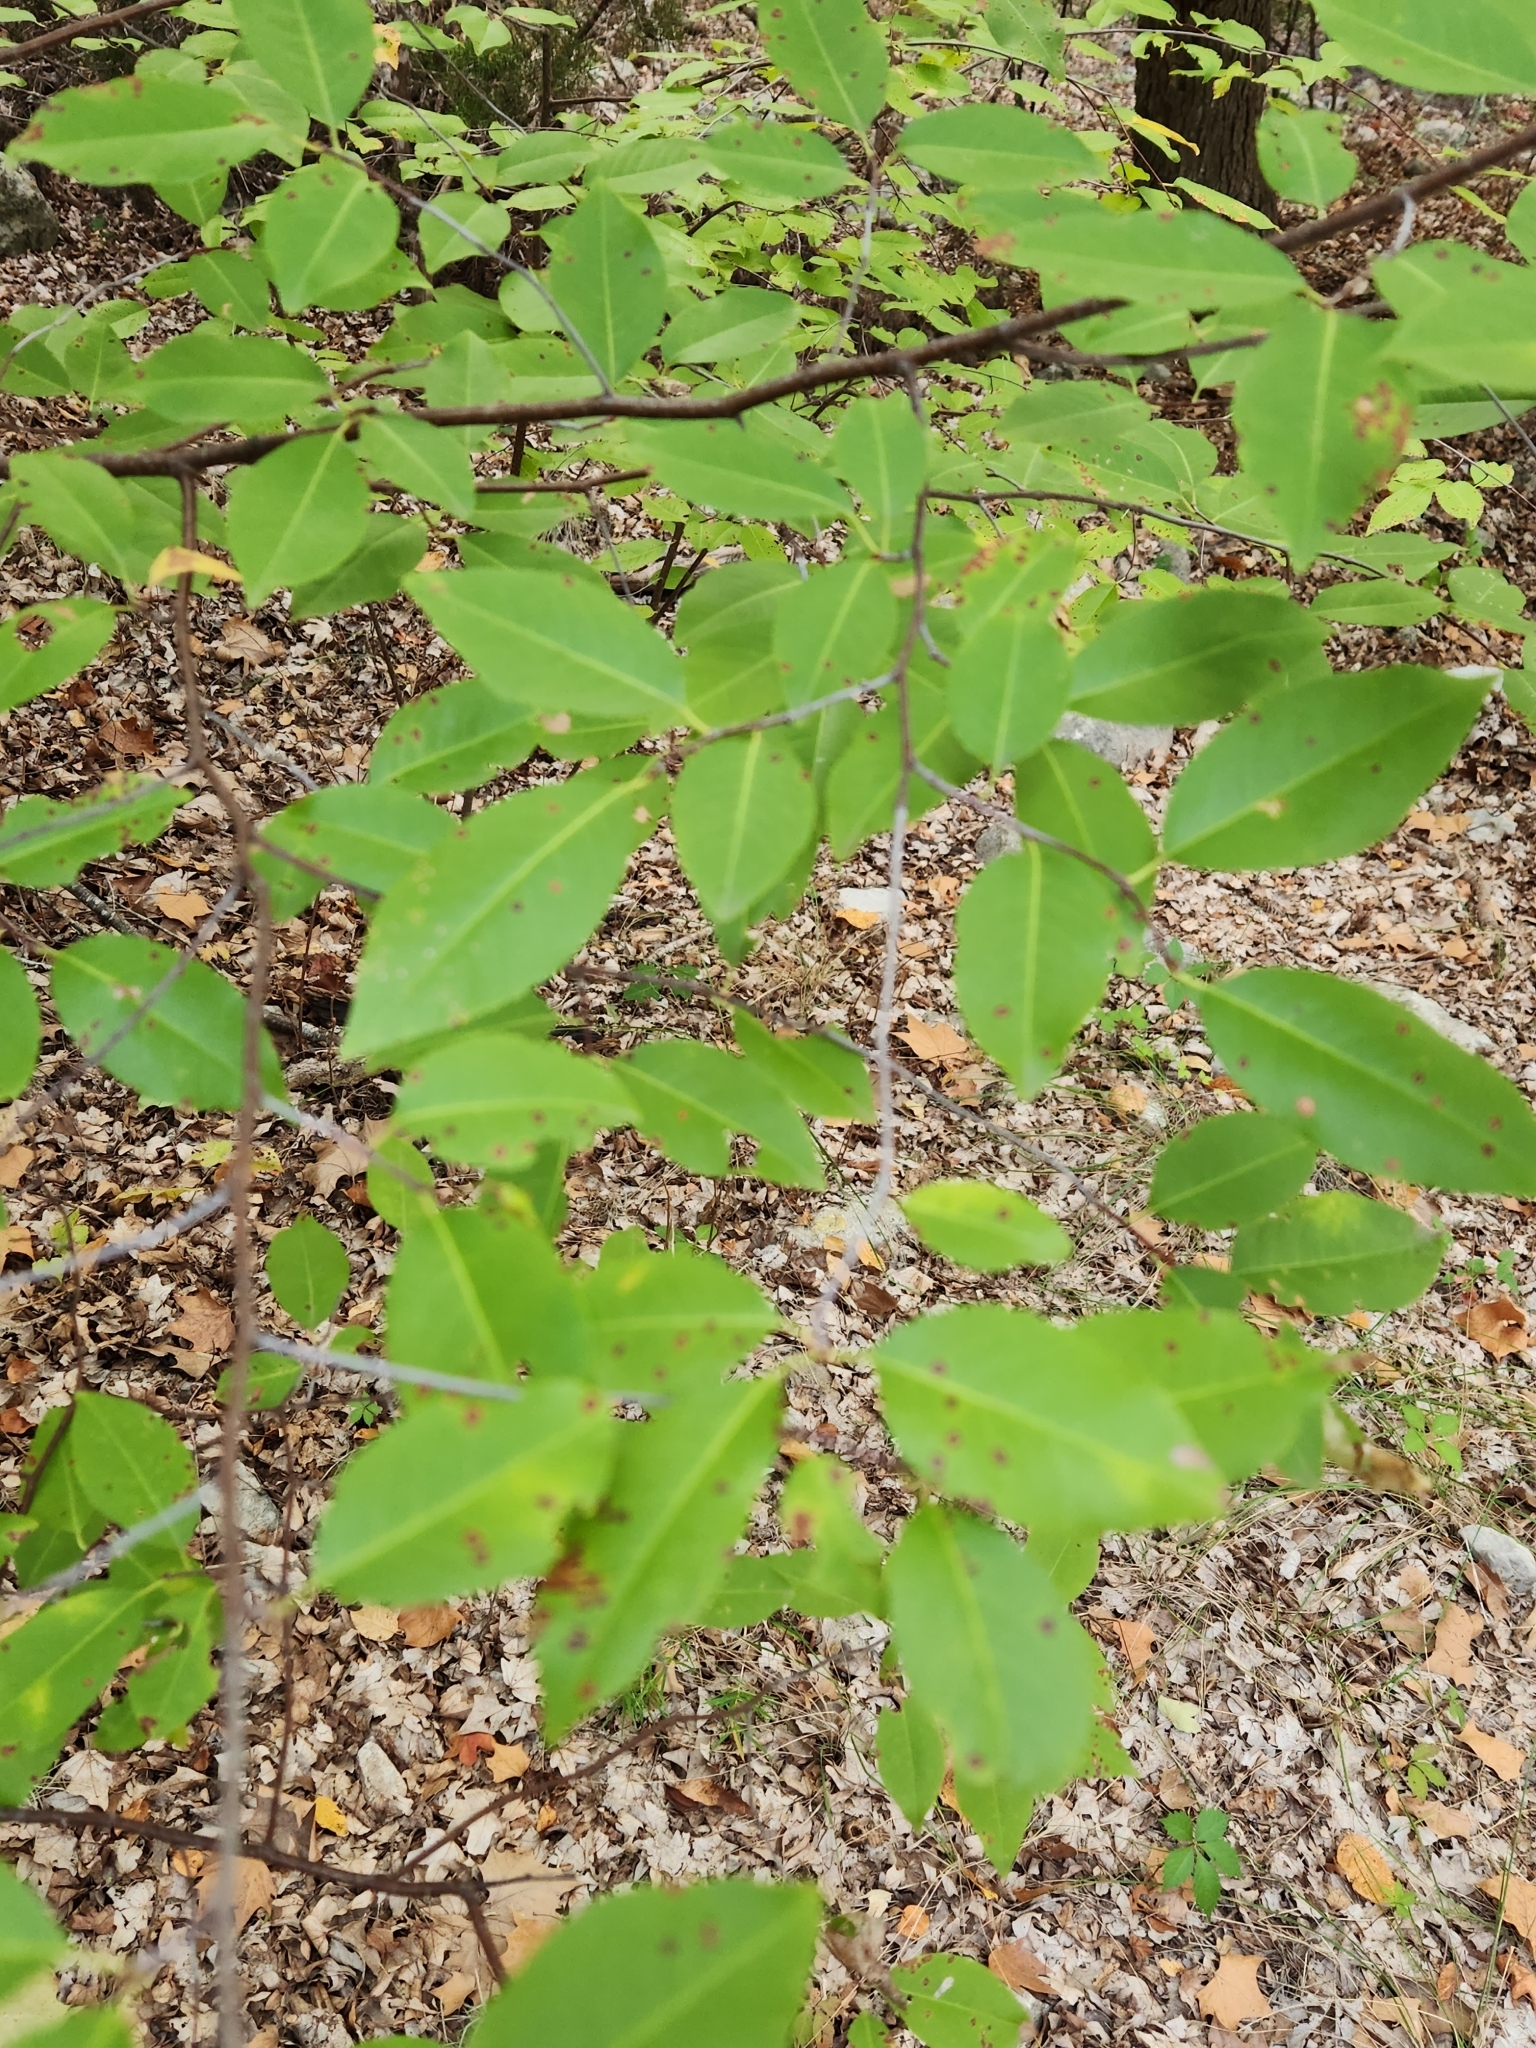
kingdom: Plantae
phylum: Tracheophyta
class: Magnoliopsida
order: Rosales
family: Rosaceae
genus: Prunus
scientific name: Prunus serotina
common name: Black cherry
